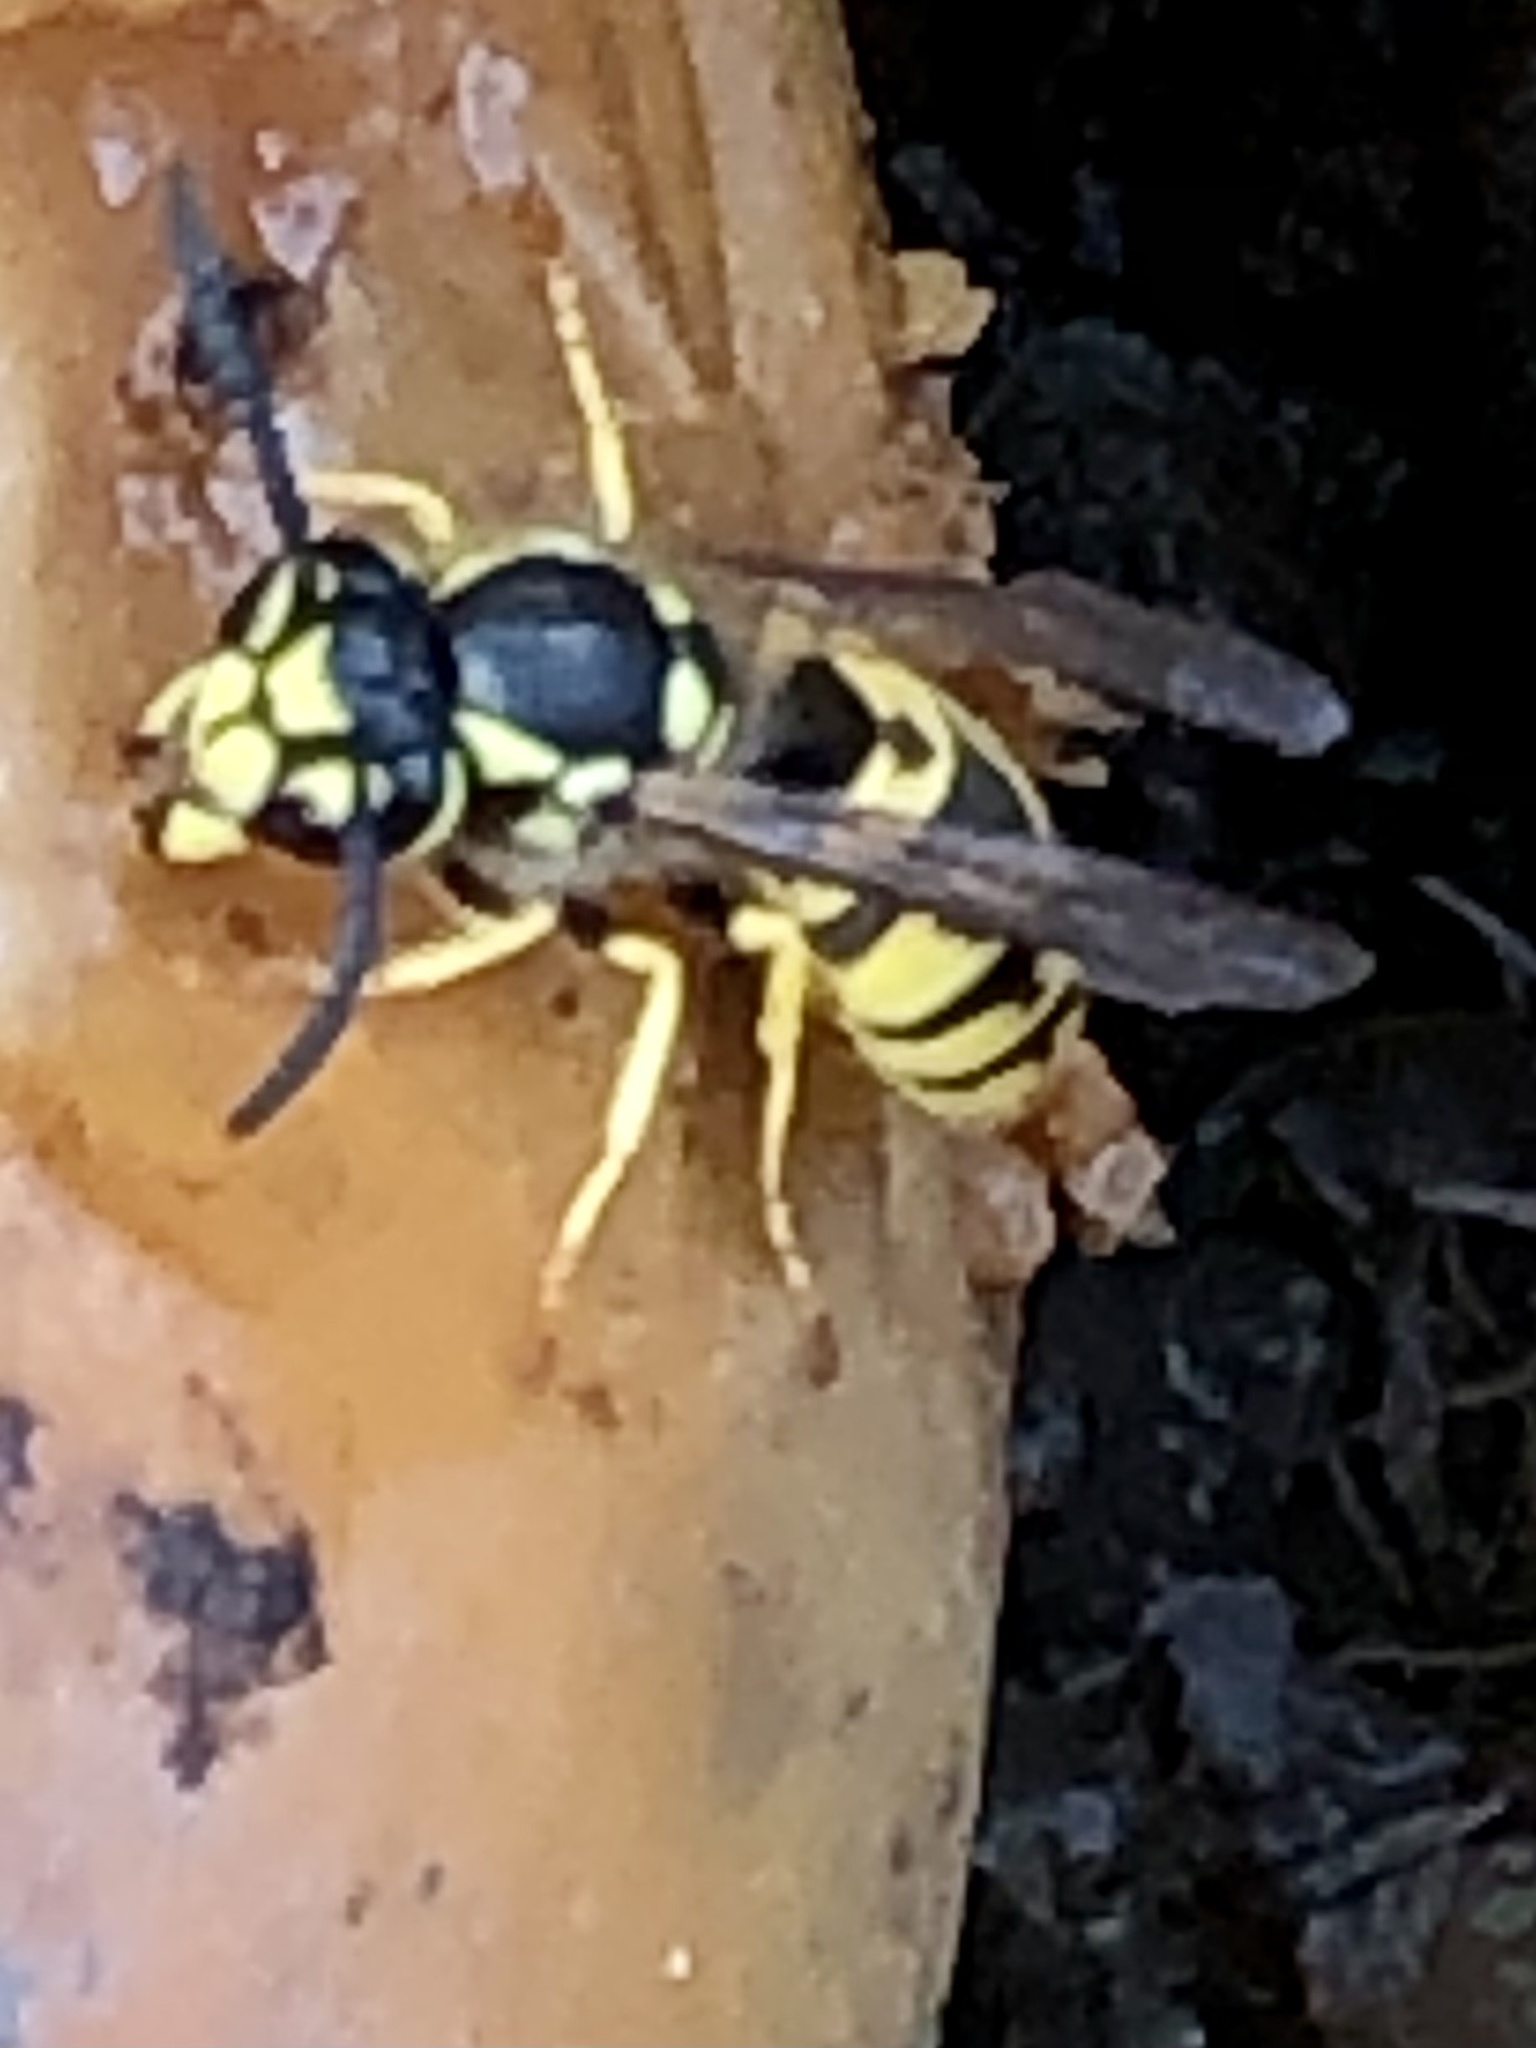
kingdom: Animalia
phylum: Arthropoda
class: Insecta
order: Hymenoptera
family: Vespidae
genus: Vespula
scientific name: Vespula germanica
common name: German wasp
